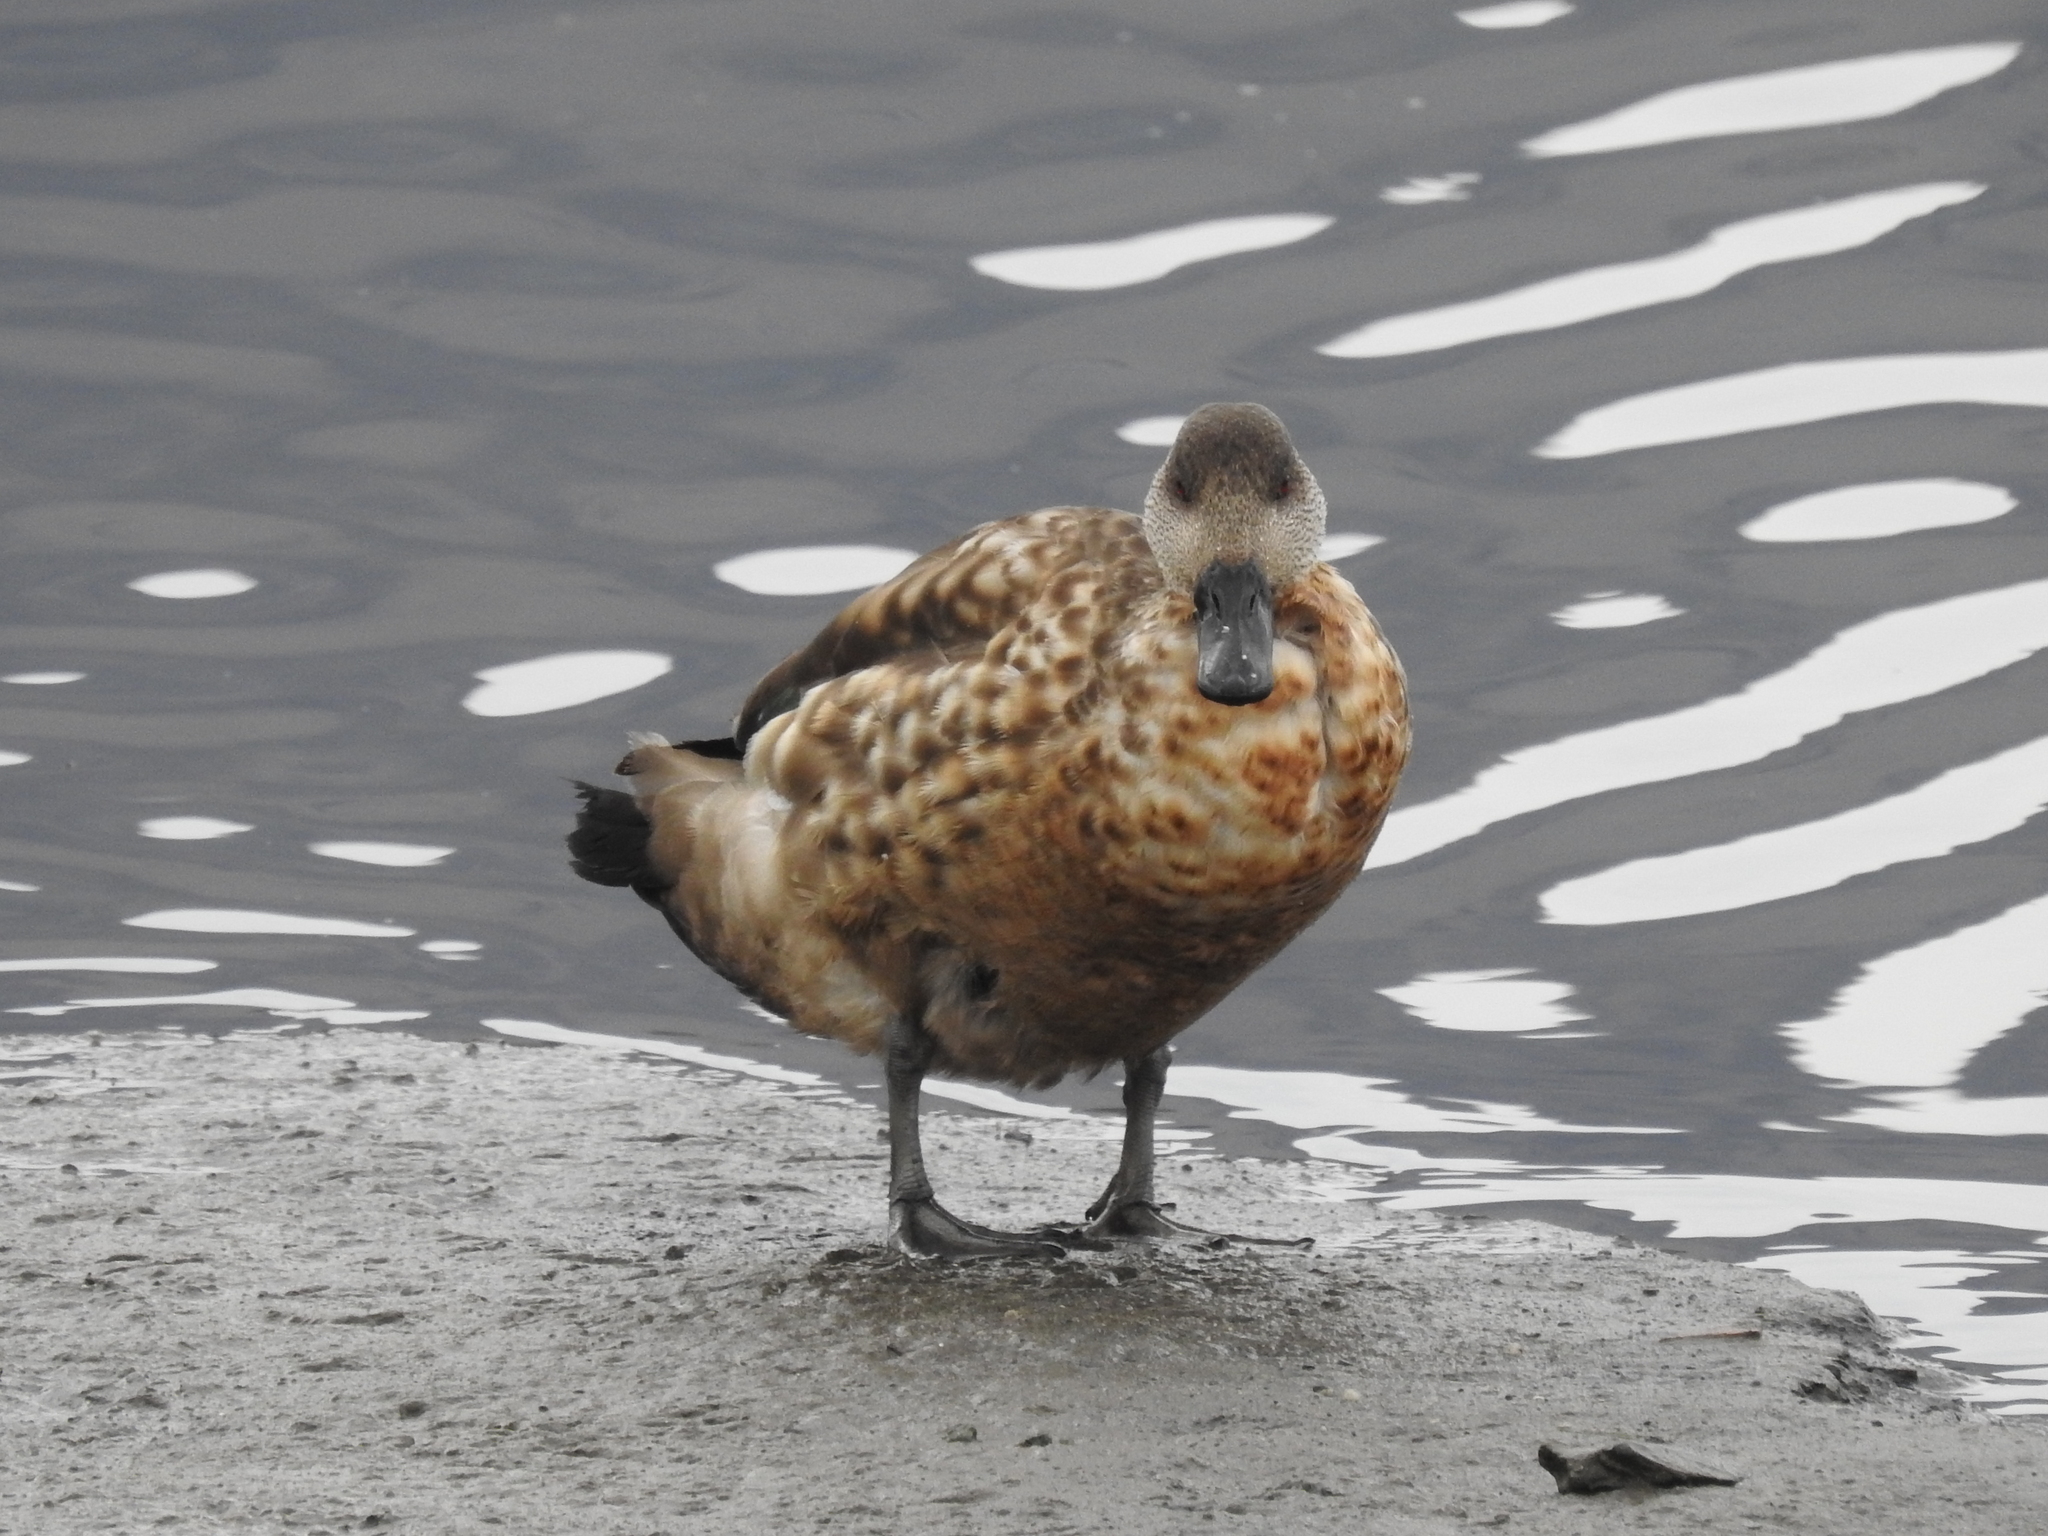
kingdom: Animalia
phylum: Chordata
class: Aves
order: Anseriformes
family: Anatidae
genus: Lophonetta
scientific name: Lophonetta specularioides
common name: Crested duck
